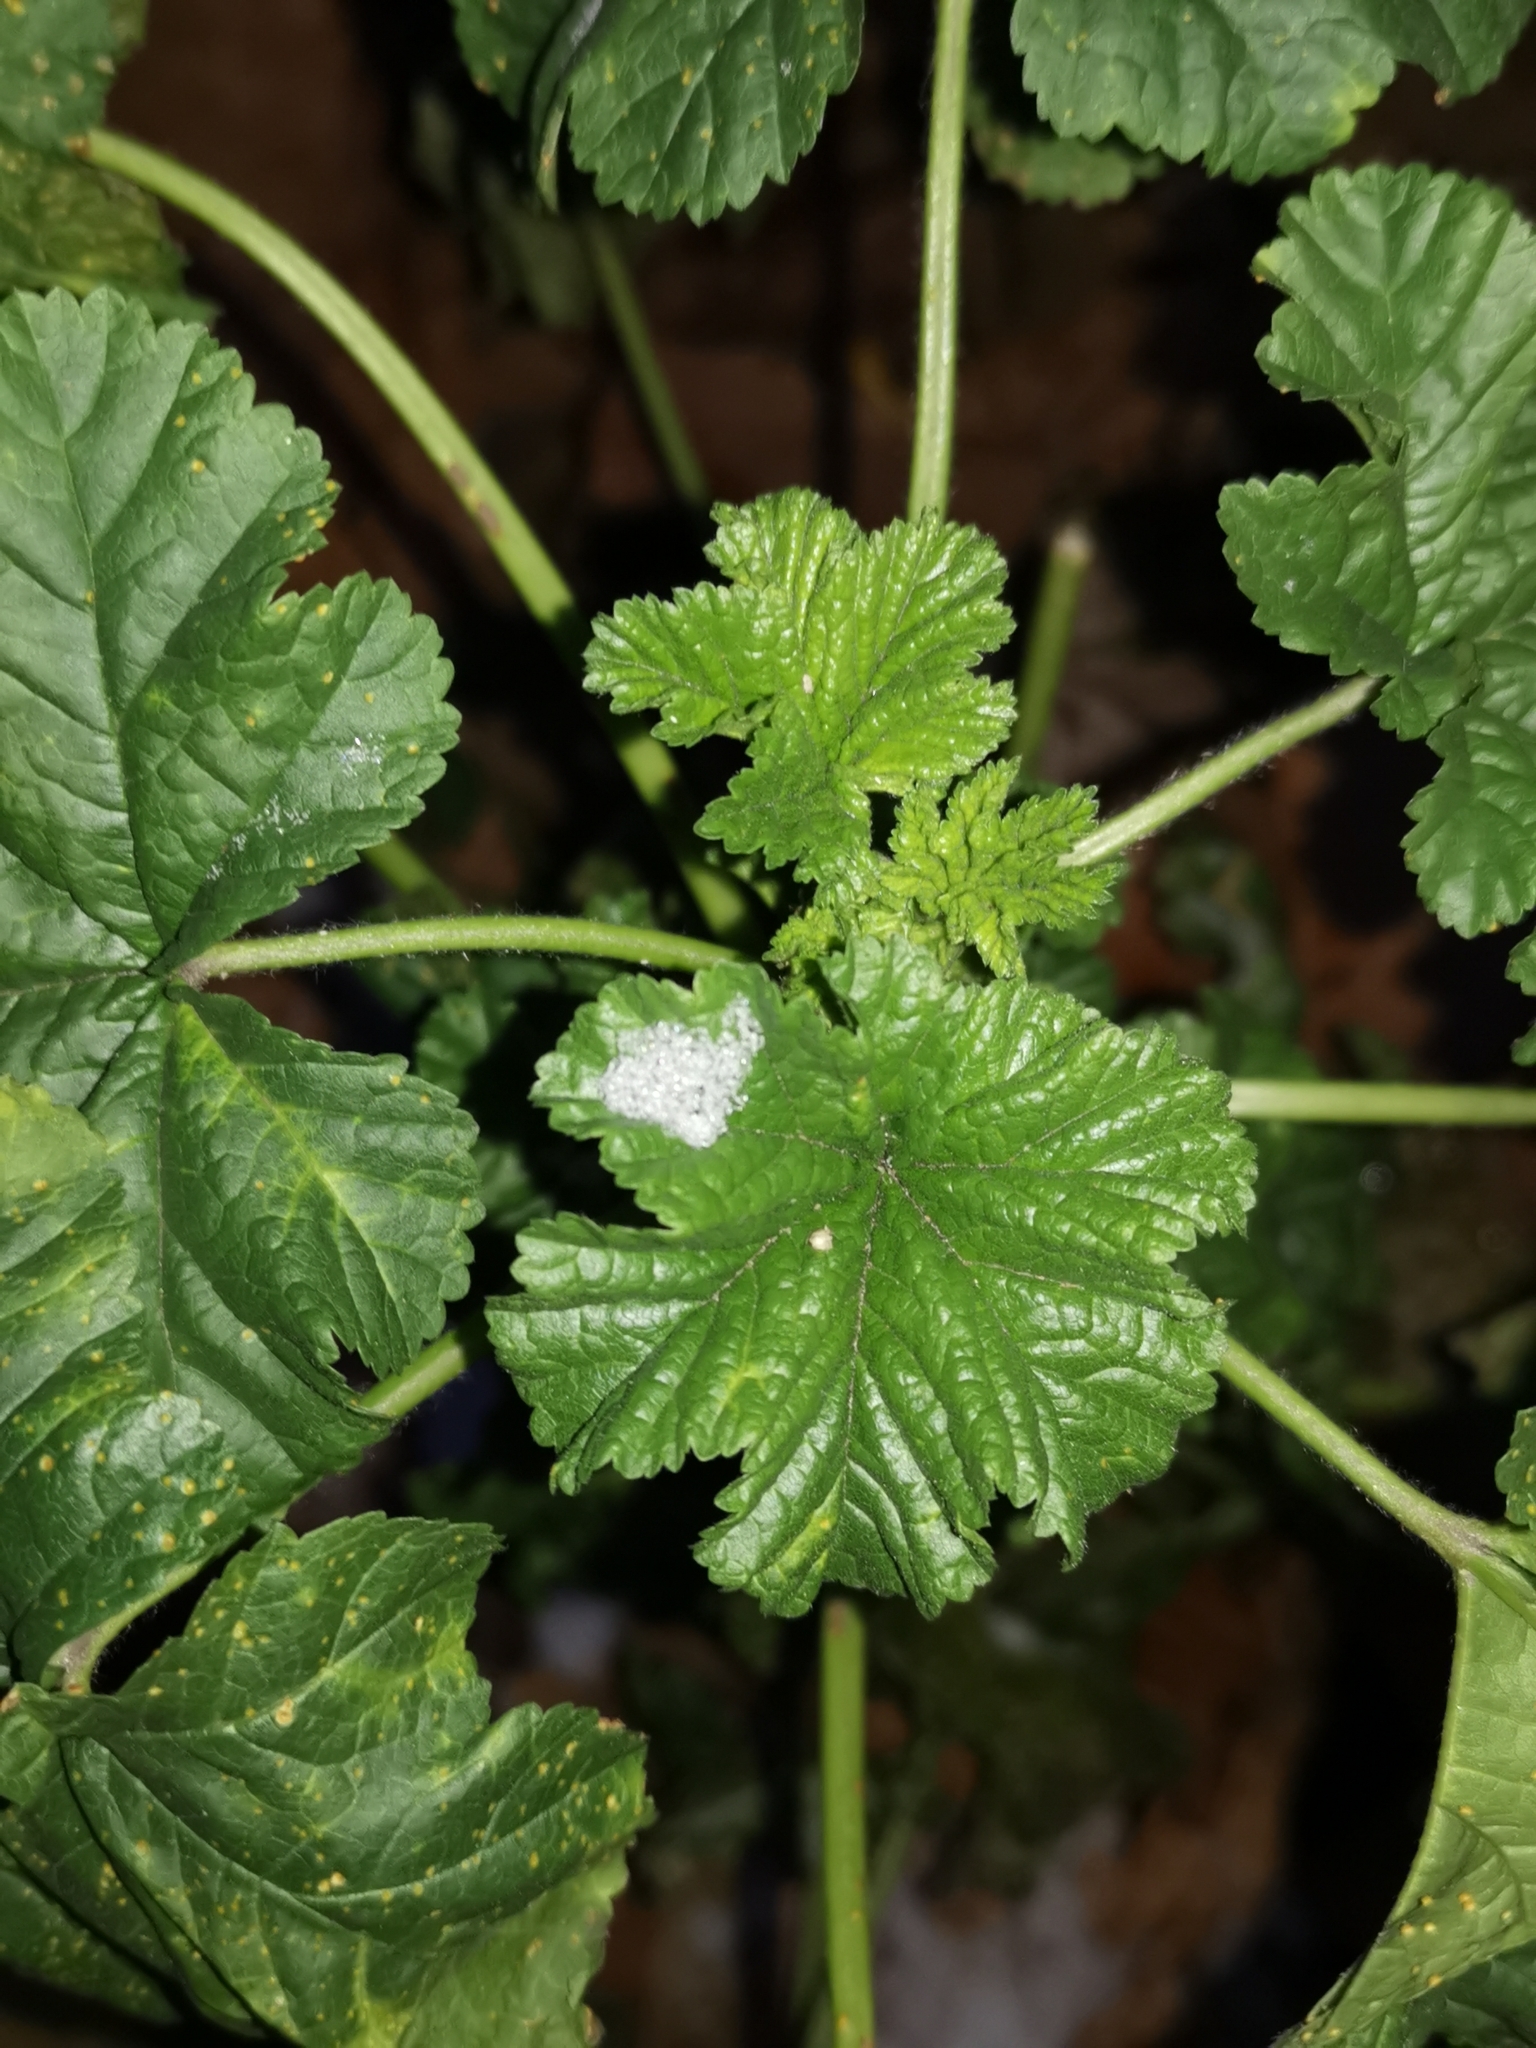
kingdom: Plantae
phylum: Tracheophyta
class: Magnoliopsida
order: Malvales
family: Malvaceae
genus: Malva
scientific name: Malva sylvestris
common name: Common mallow
